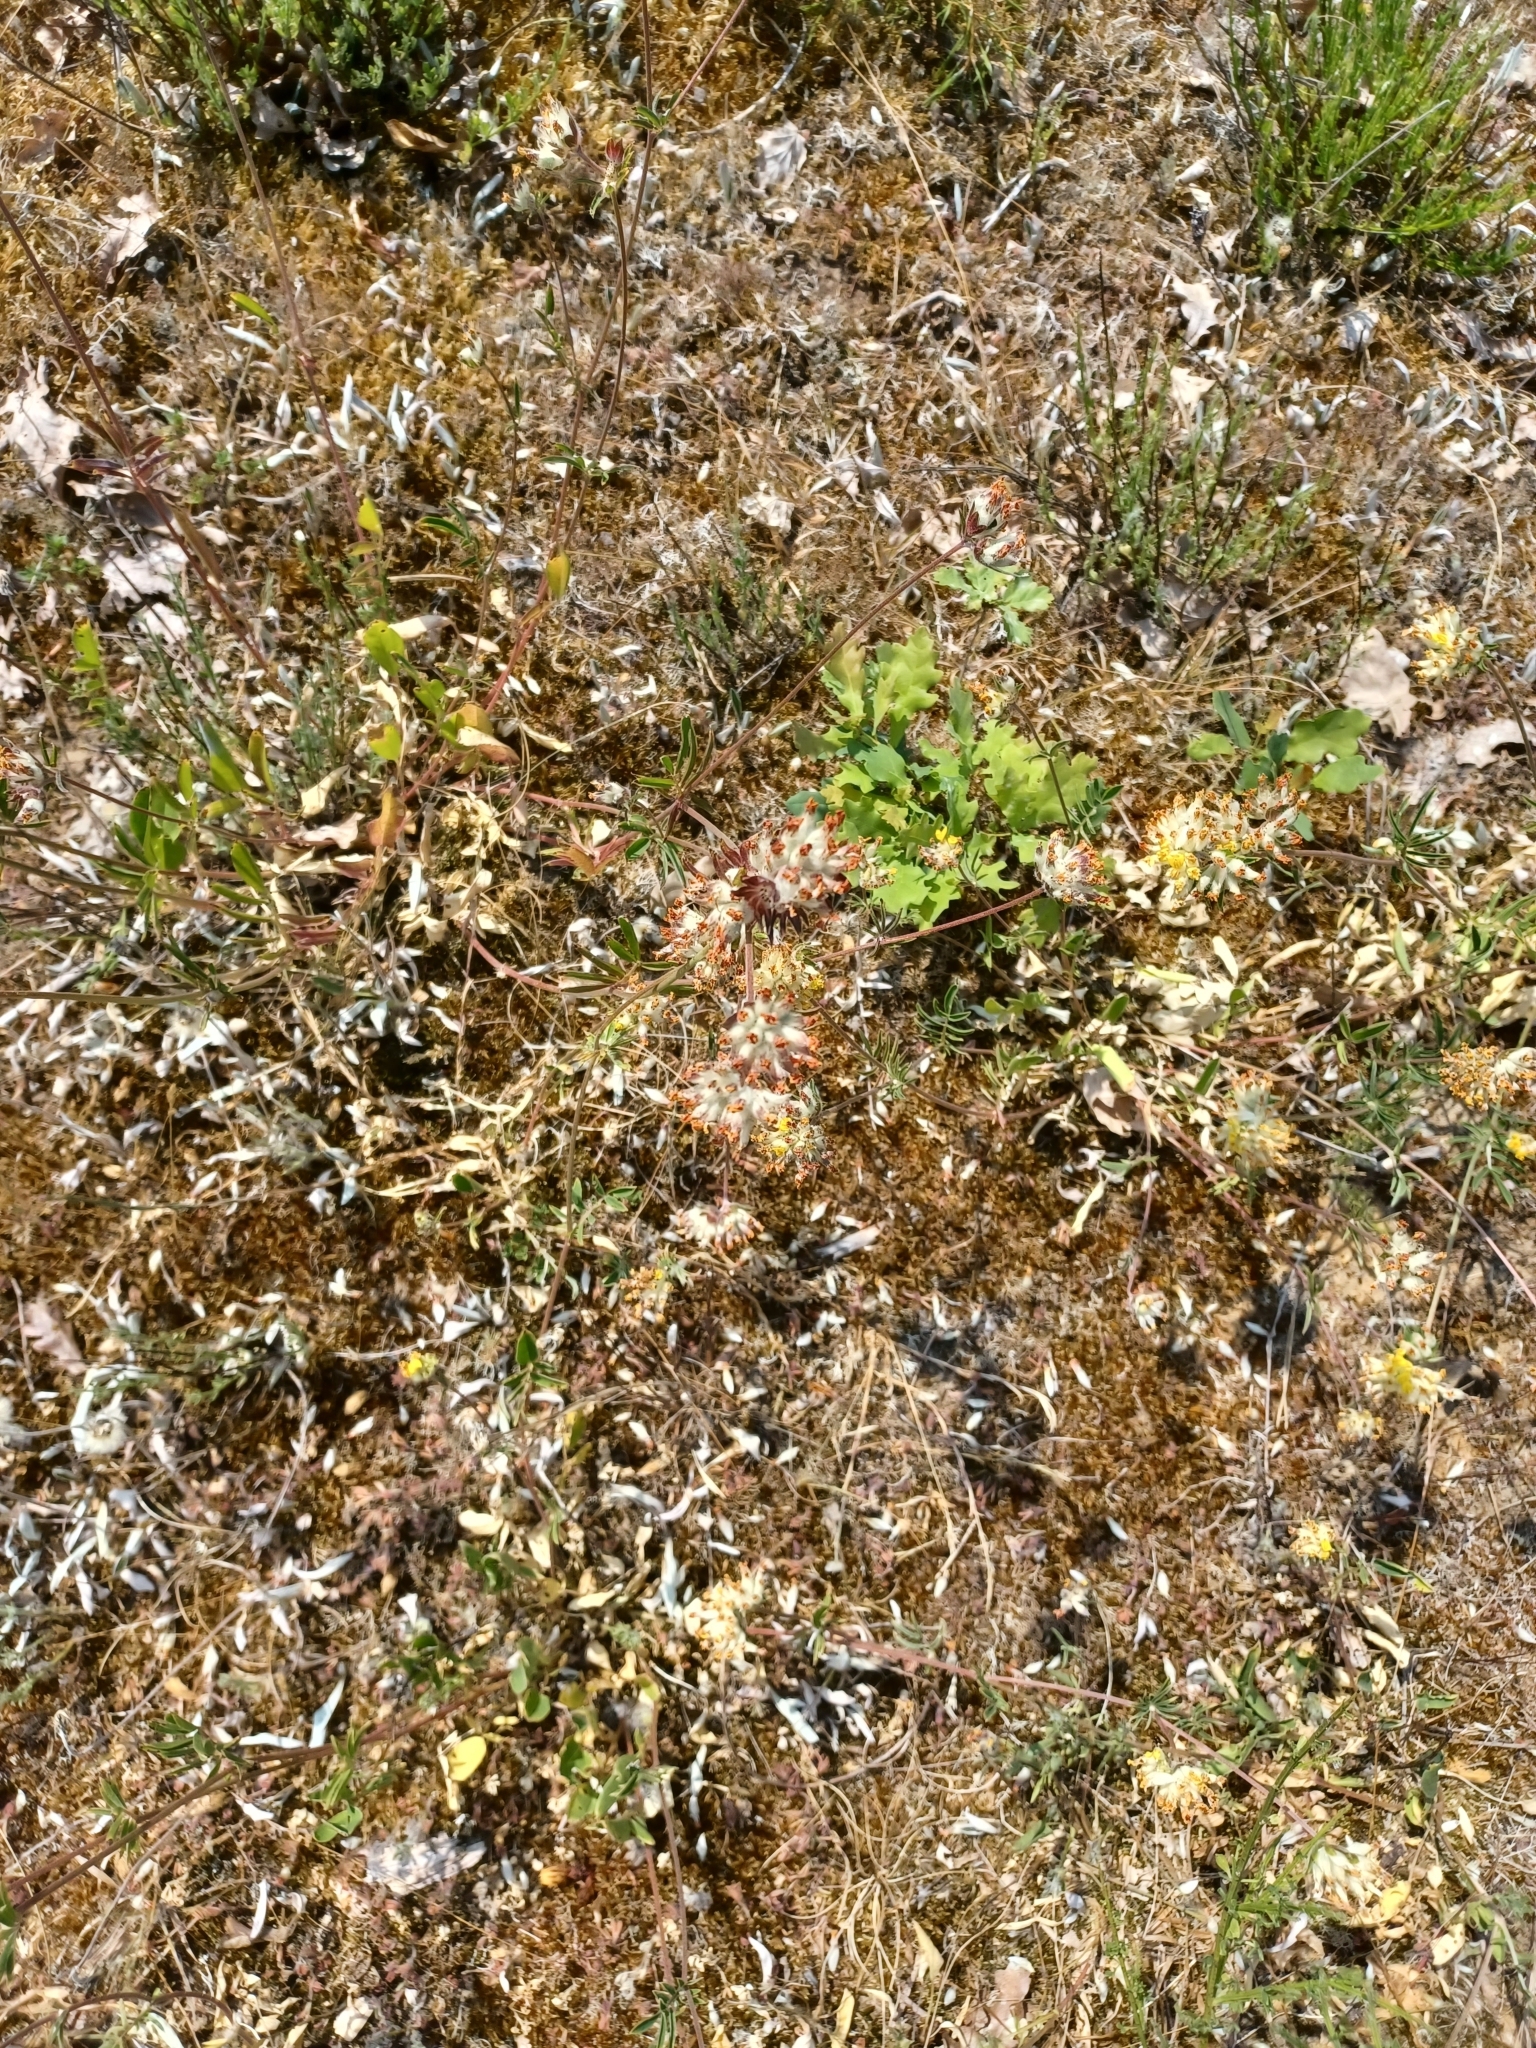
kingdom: Plantae
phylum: Tracheophyta
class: Magnoliopsida
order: Fabales
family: Fabaceae
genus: Anthyllis
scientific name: Anthyllis vulneraria
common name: Kidney vetch
